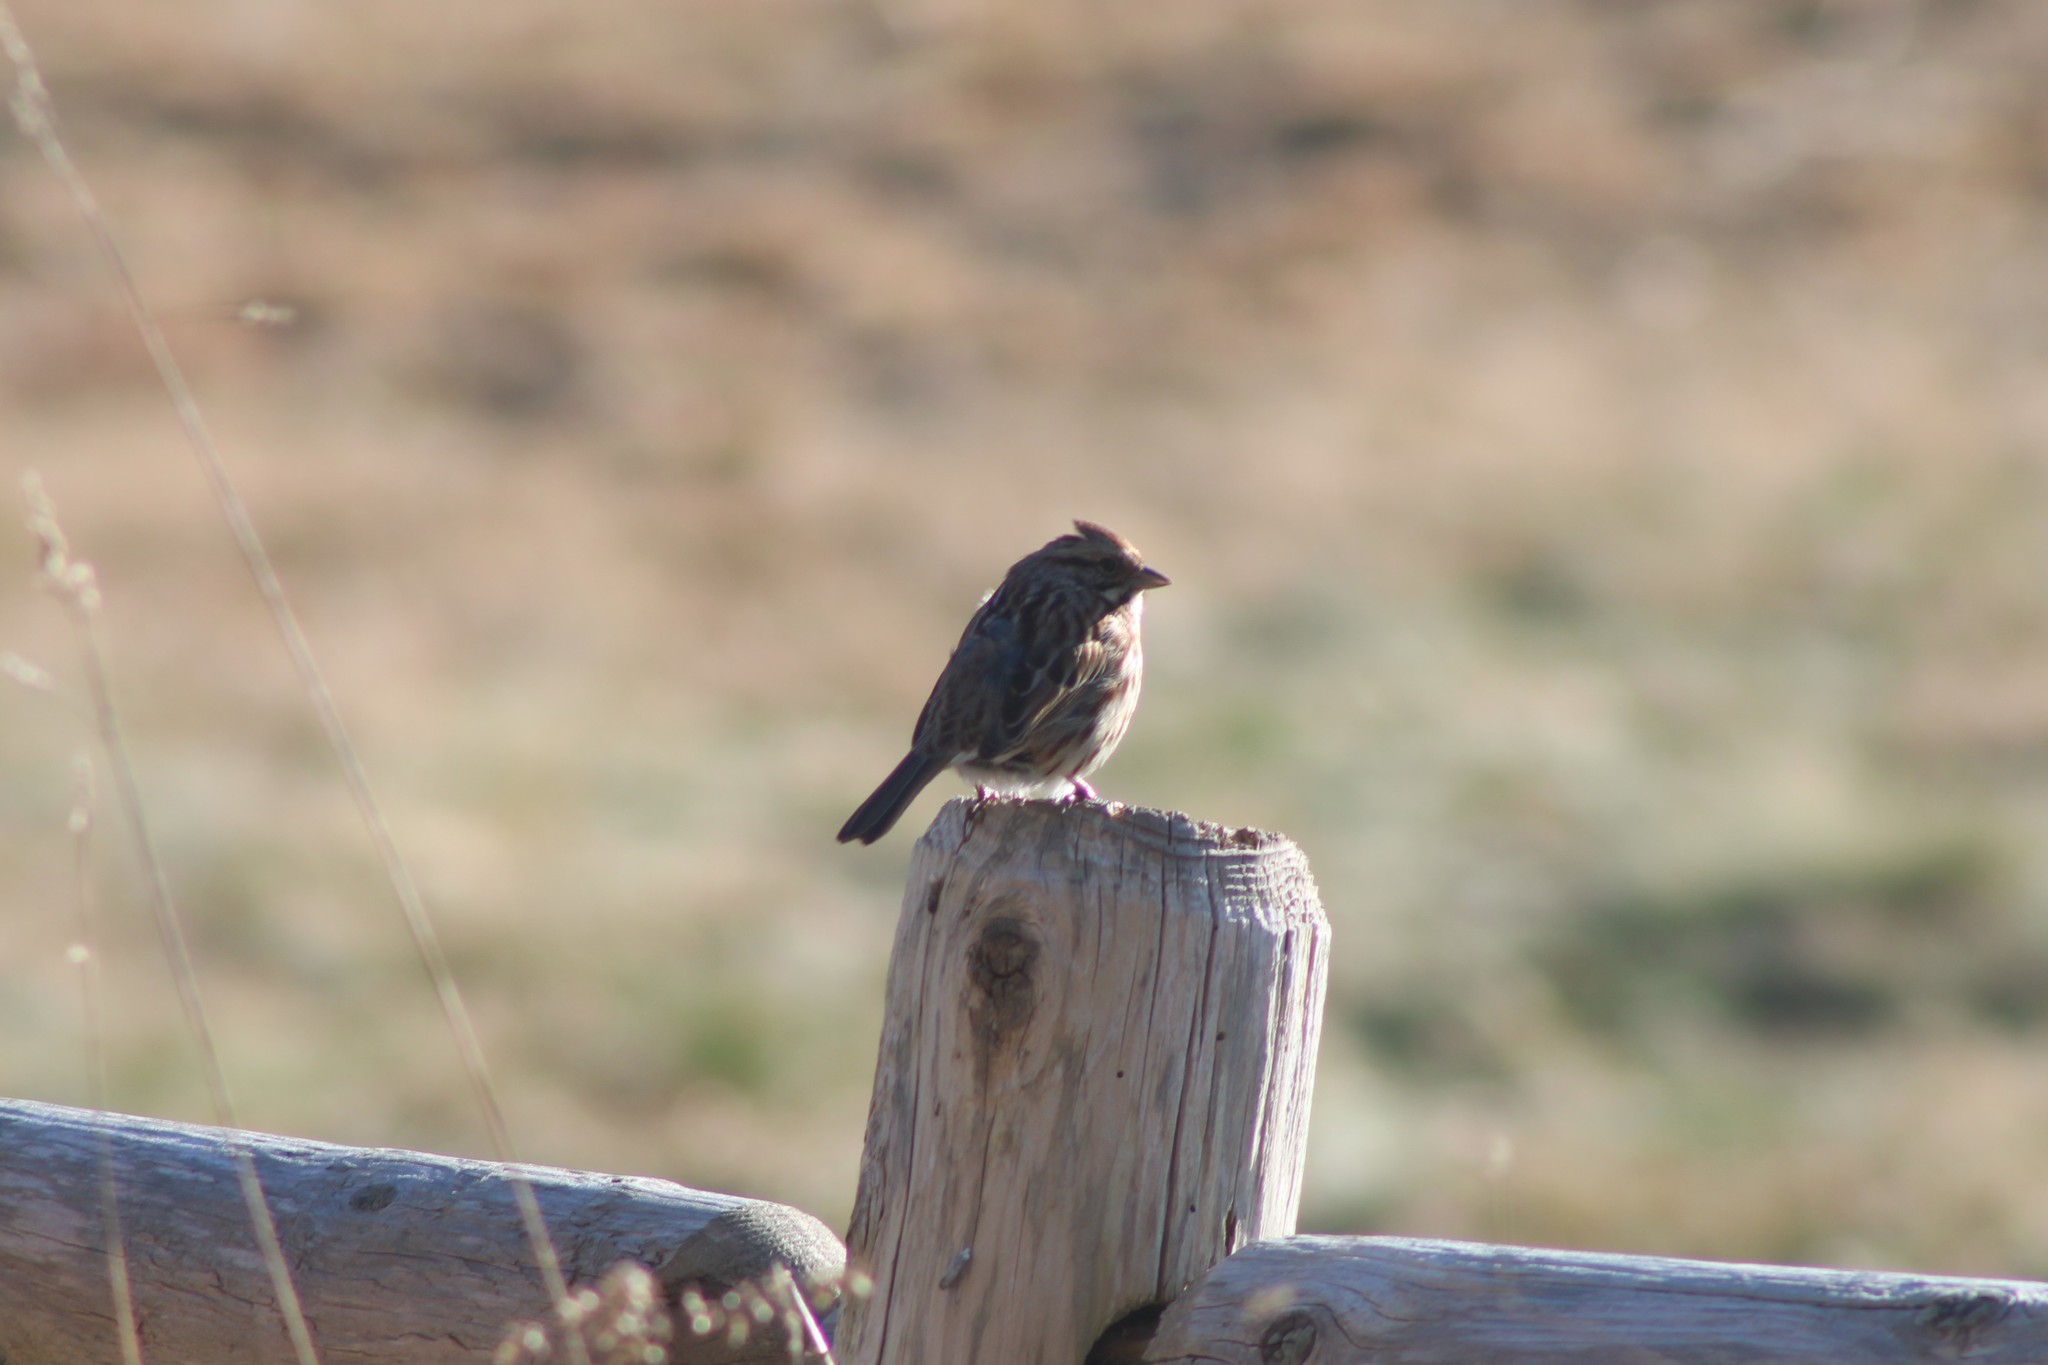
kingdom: Animalia
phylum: Chordata
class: Aves
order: Passeriformes
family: Passerellidae
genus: Melospiza
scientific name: Melospiza melodia
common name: Song sparrow
